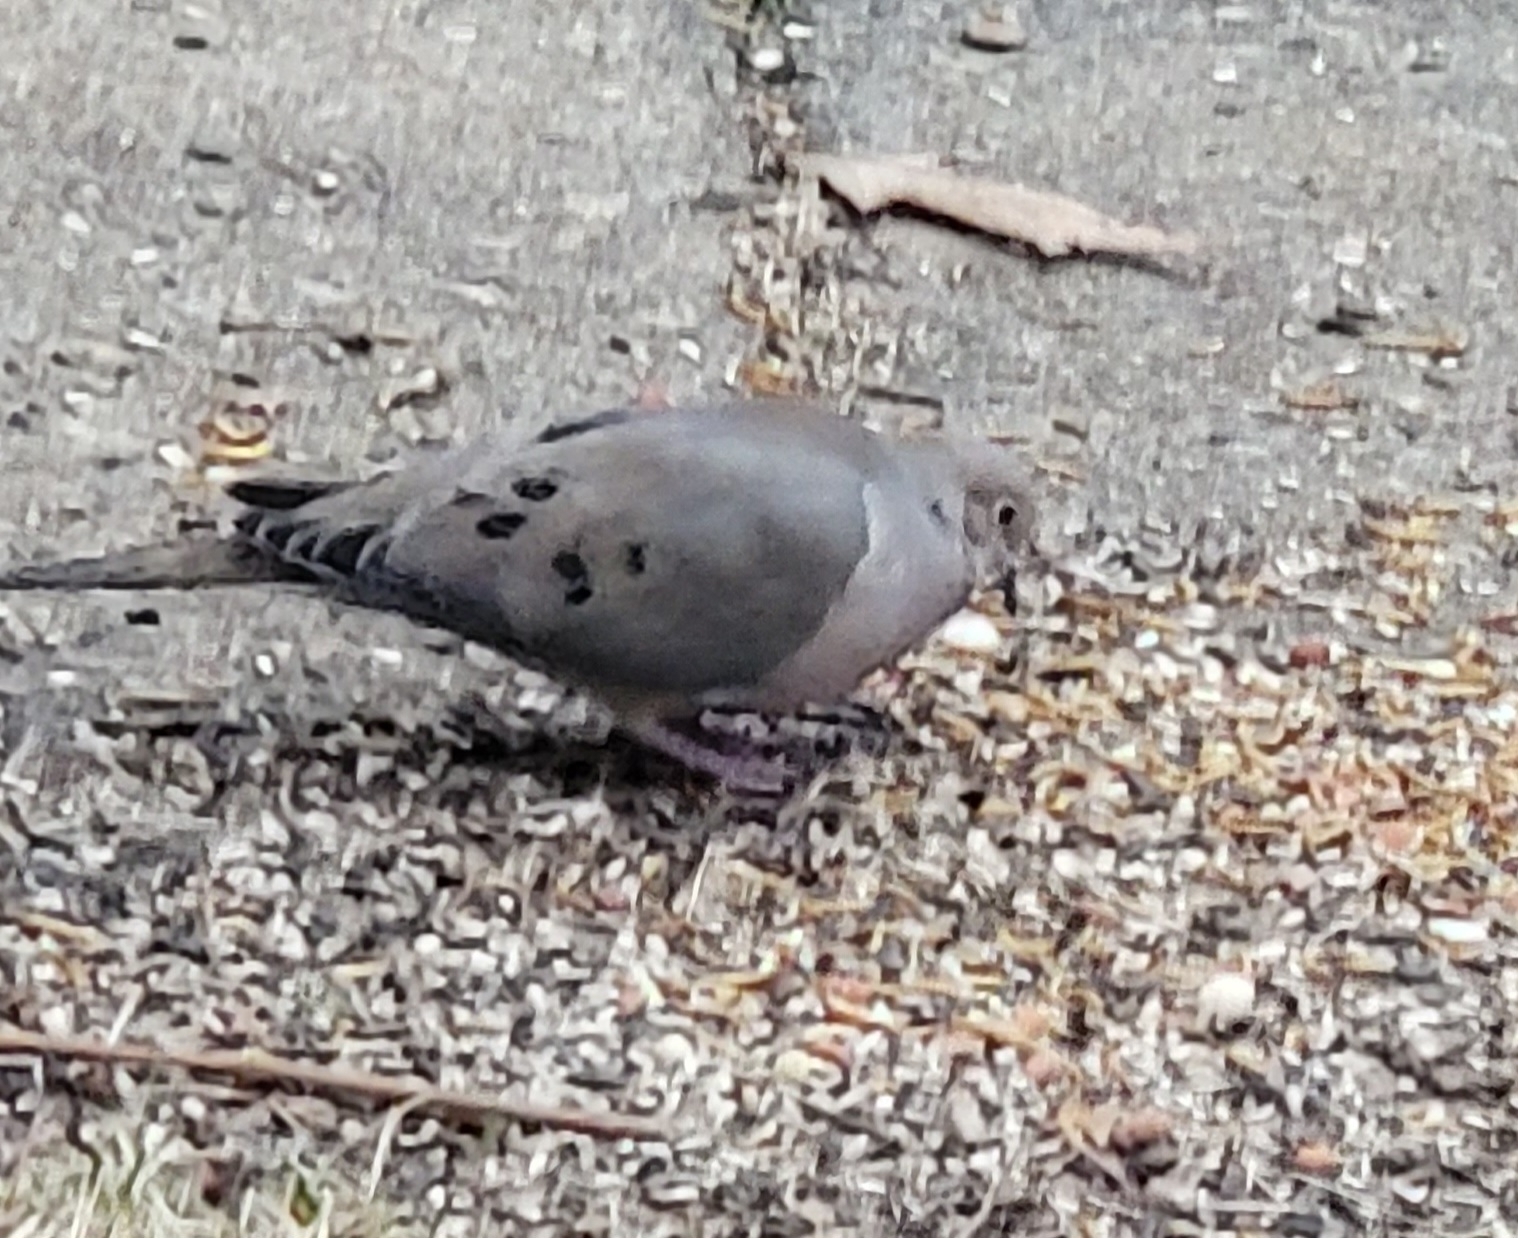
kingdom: Animalia
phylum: Chordata
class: Aves
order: Columbiformes
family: Columbidae
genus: Zenaida
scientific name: Zenaida macroura
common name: Mourning dove
